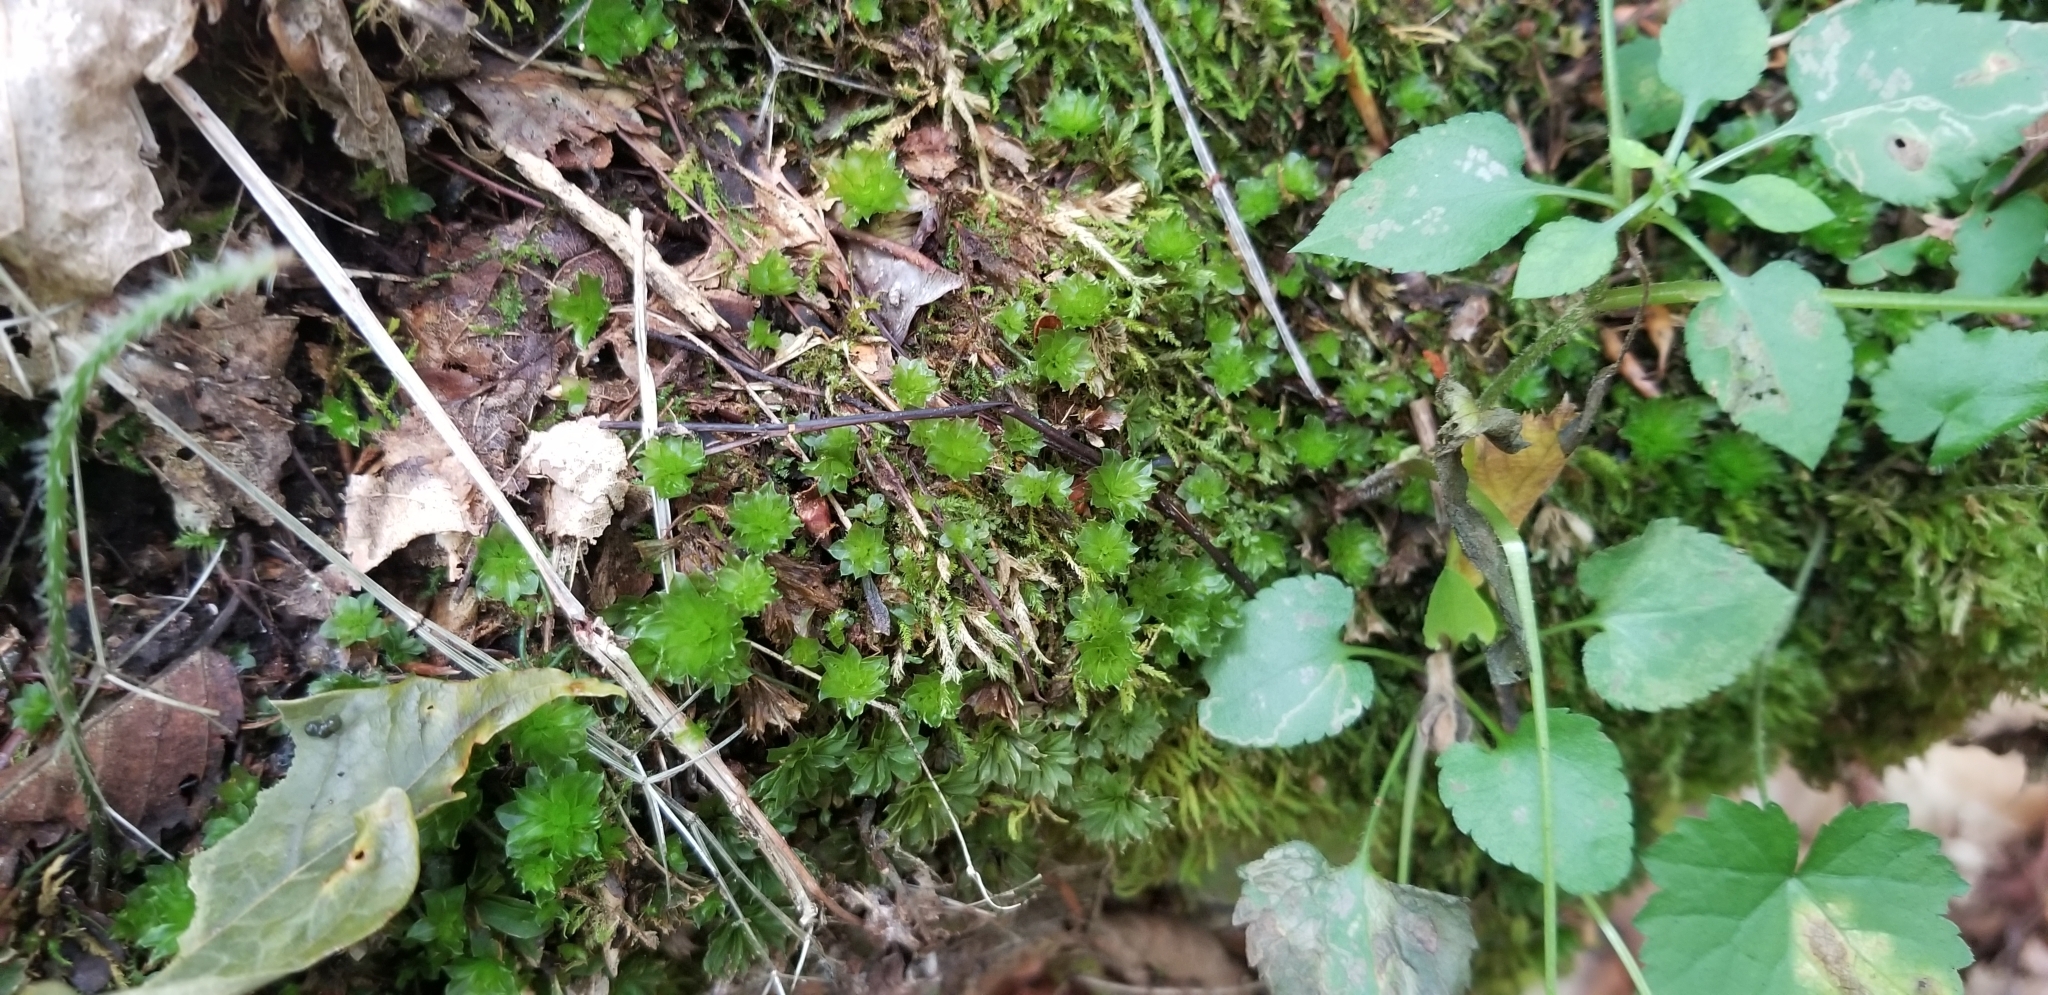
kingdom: Plantae
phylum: Bryophyta
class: Bryopsida
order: Bryales
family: Bryaceae
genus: Rhodobryum
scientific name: Rhodobryum ontariense
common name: Ontario rhodobryum moss
